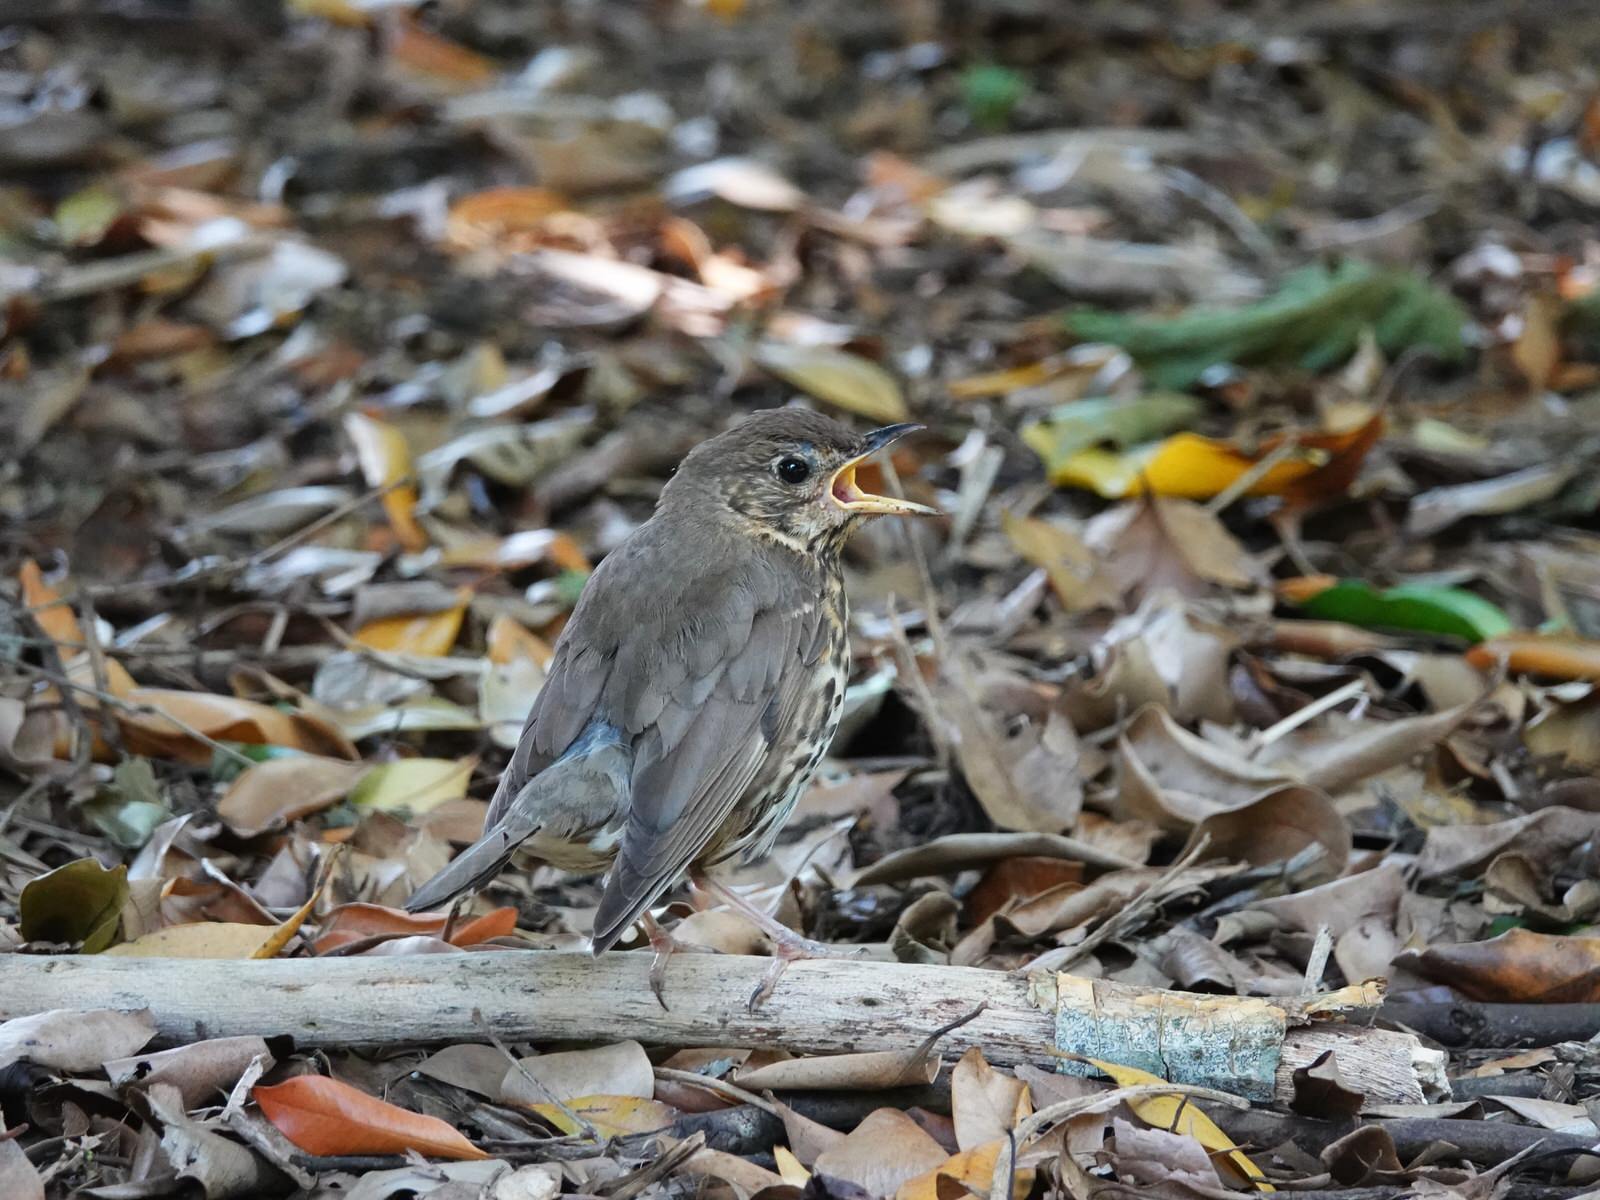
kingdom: Animalia
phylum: Chordata
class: Aves
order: Passeriformes
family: Turdidae
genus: Turdus
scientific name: Turdus philomelos
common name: Song thrush
